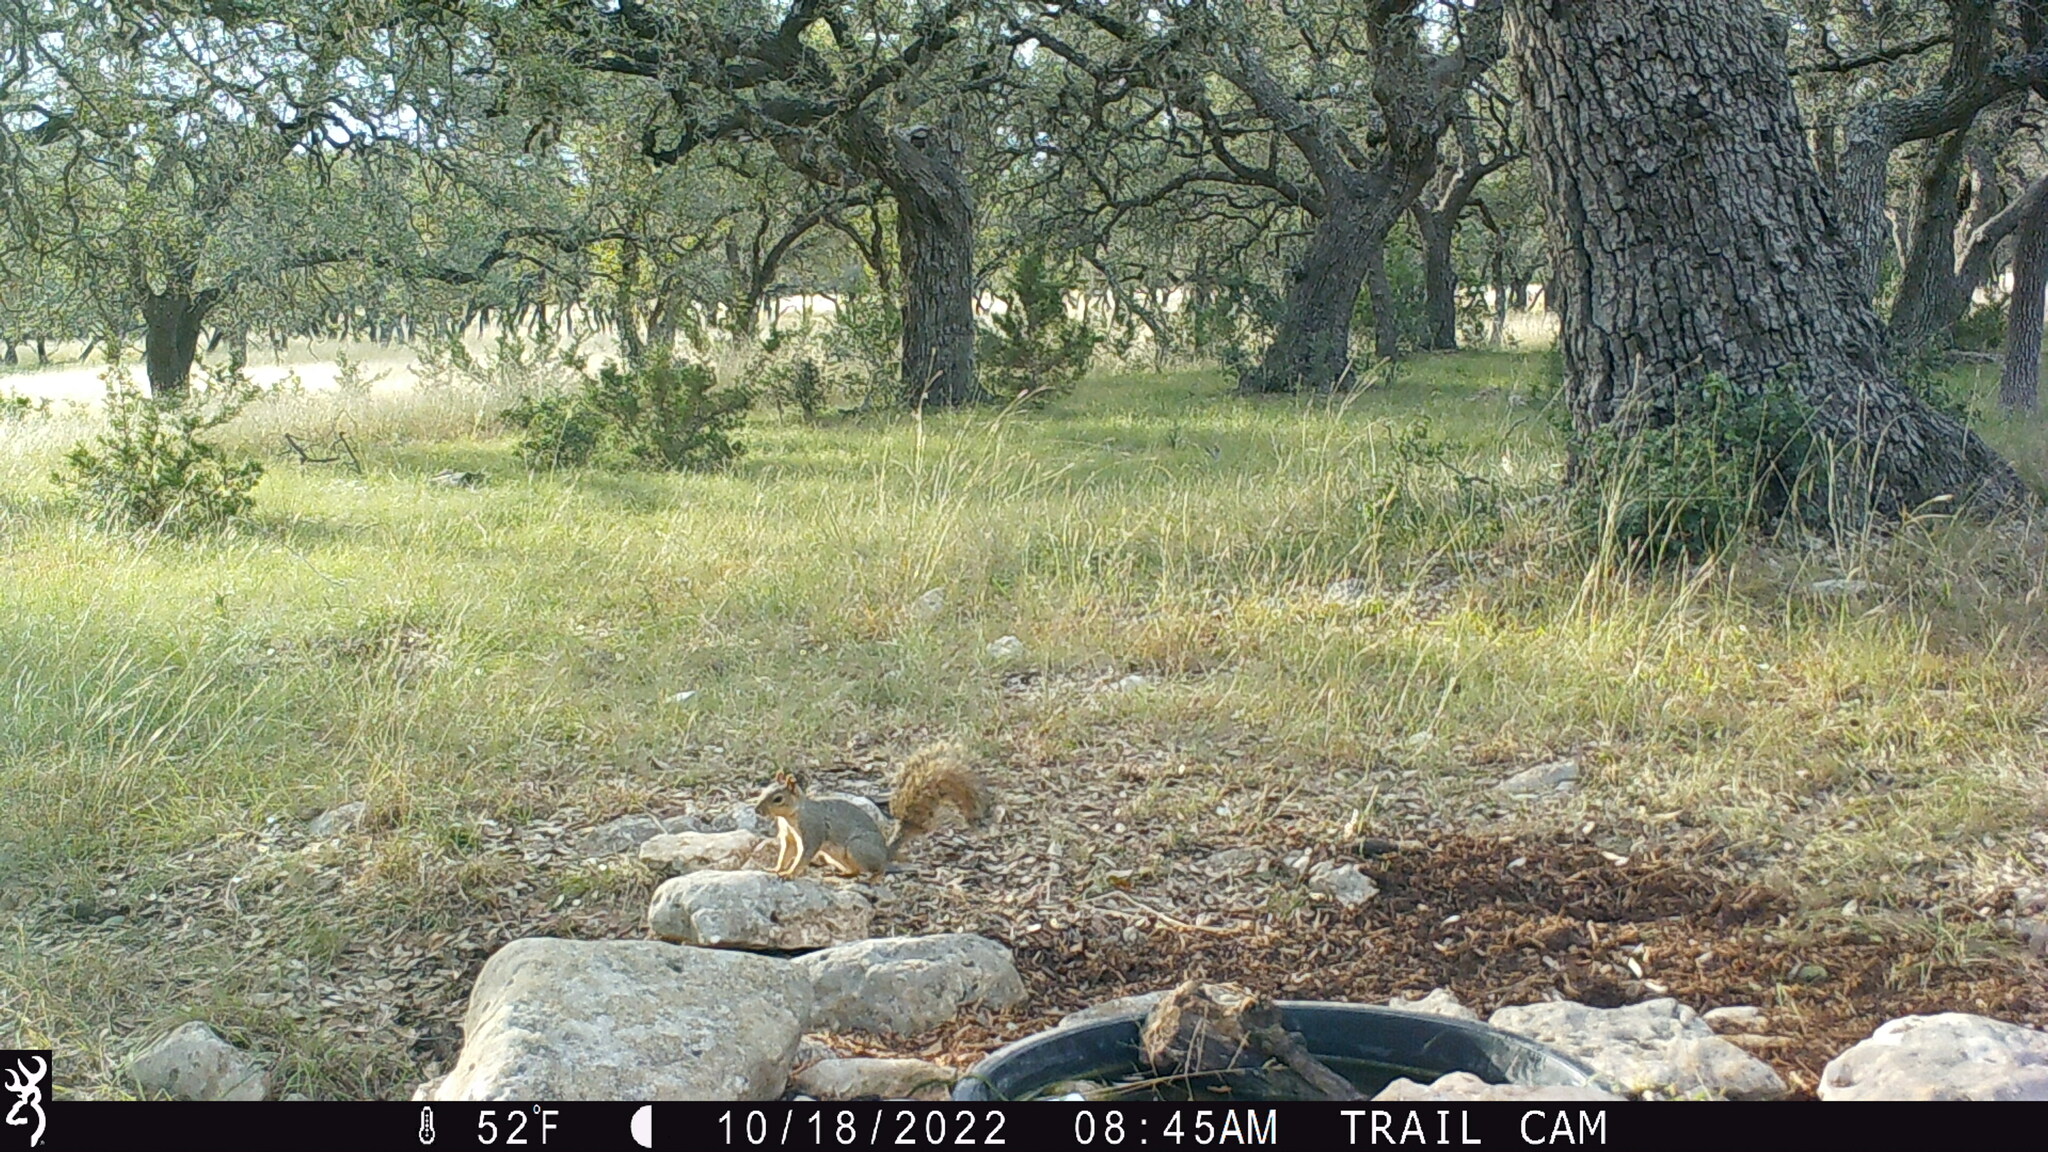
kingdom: Animalia
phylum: Chordata
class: Mammalia
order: Rodentia
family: Sciuridae
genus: Sciurus
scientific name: Sciurus niger
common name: Fox squirrel
